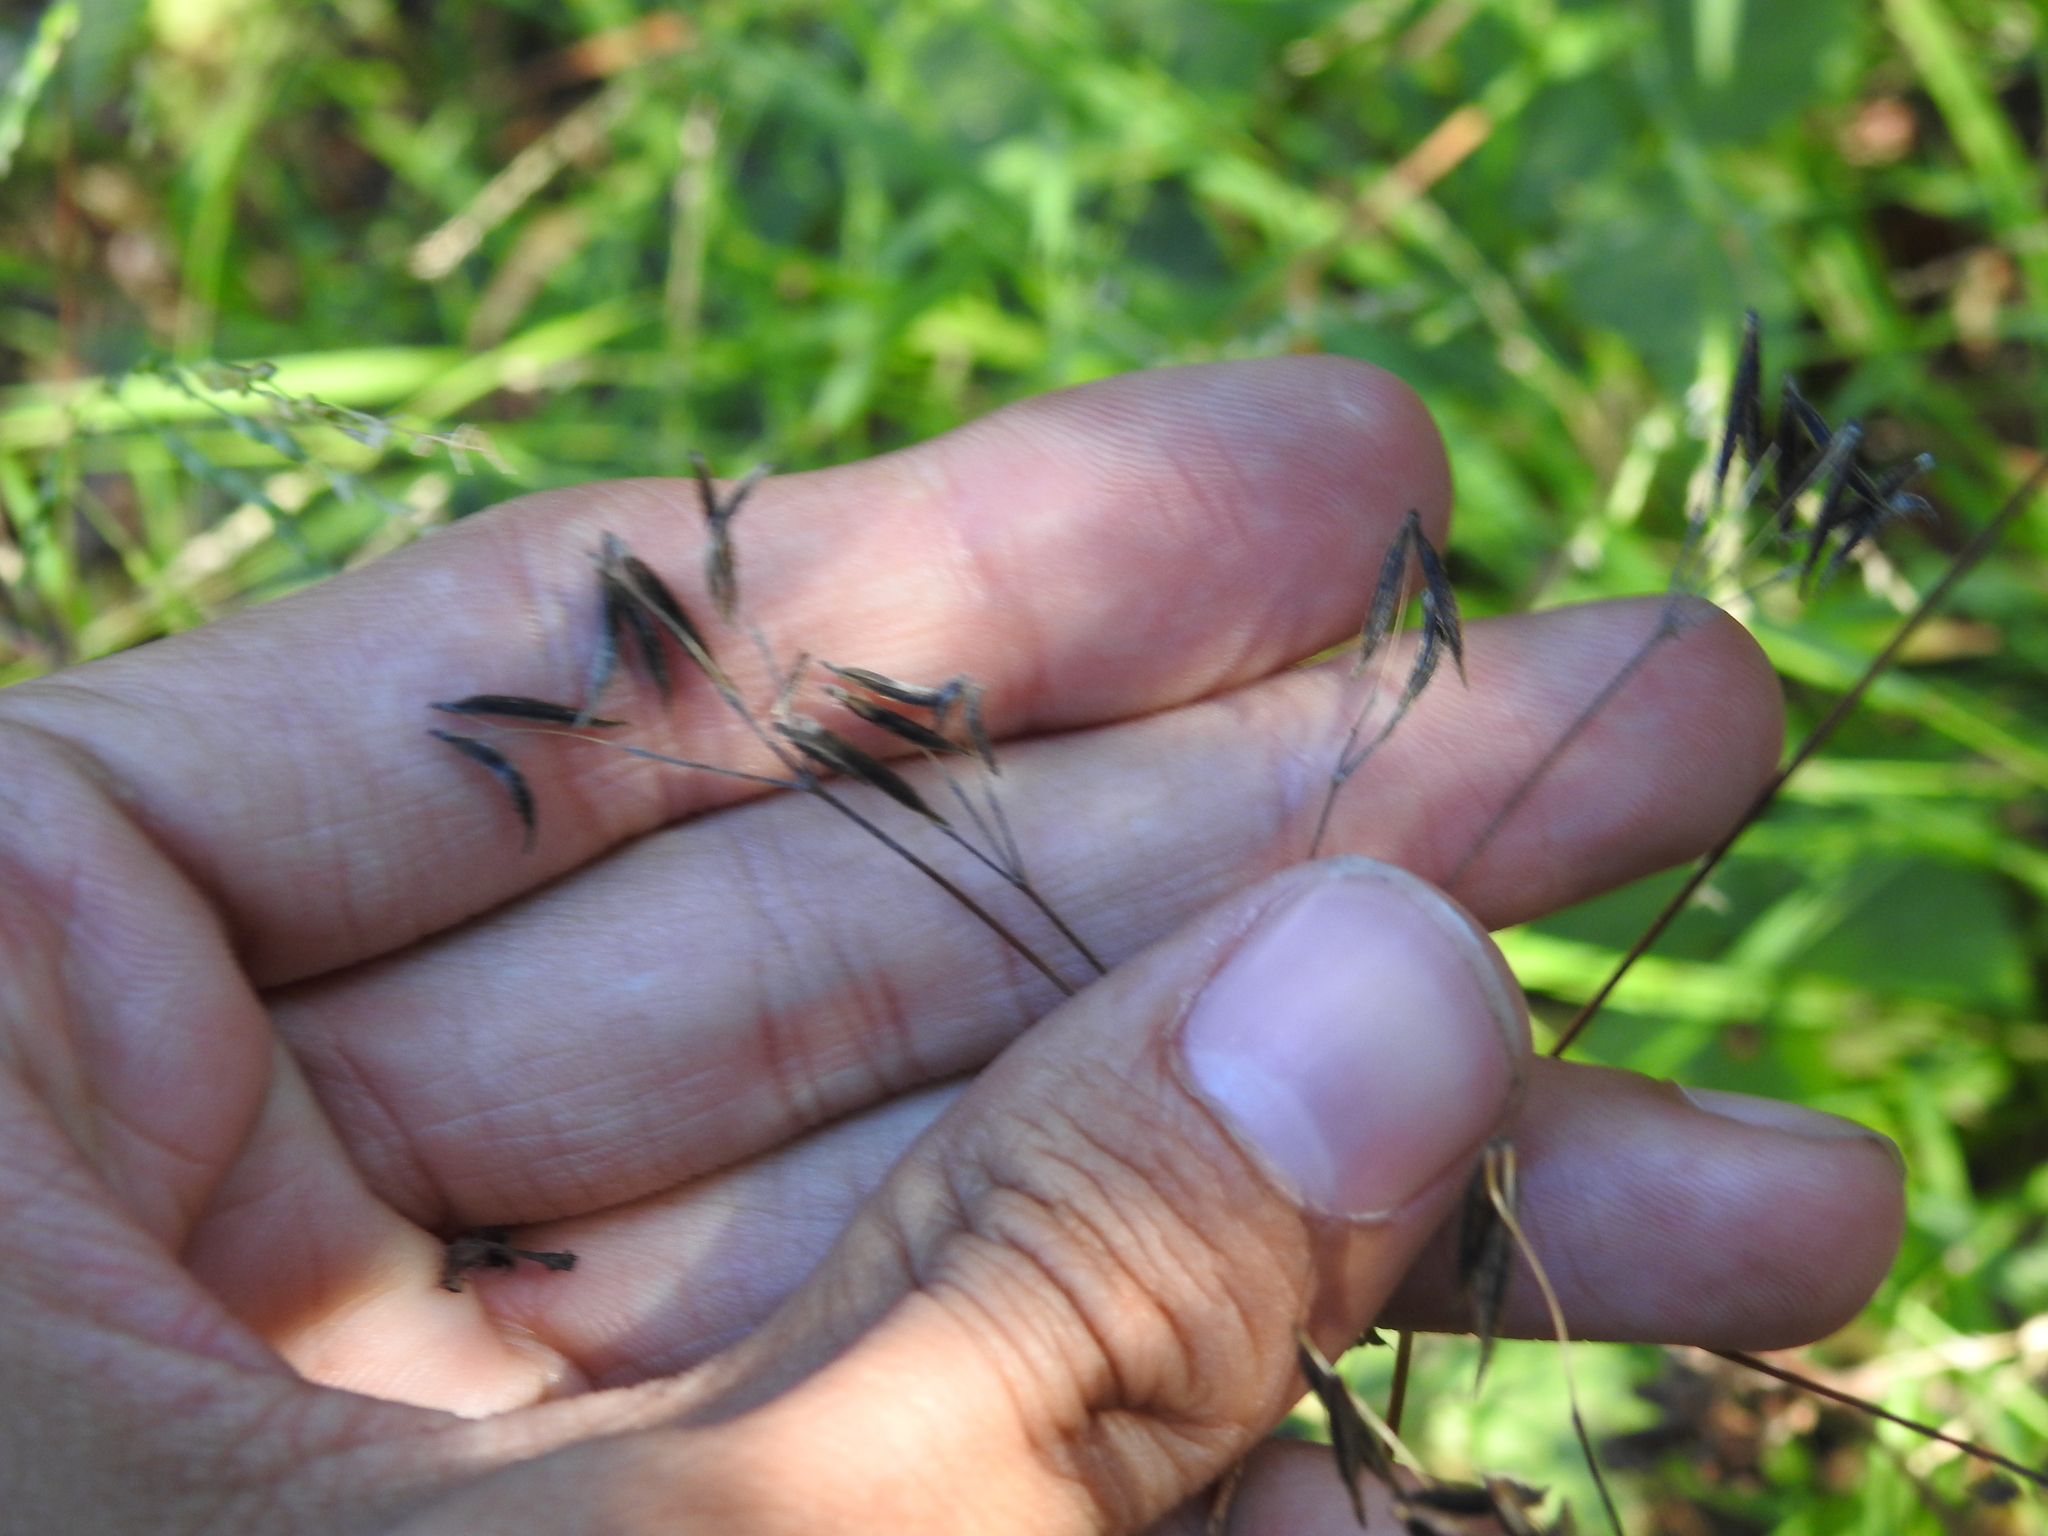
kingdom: Plantae
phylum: Tracheophyta
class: Magnoliopsida
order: Apiales
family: Apiaceae
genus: Osmorhiza
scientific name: Osmorhiza berteroi
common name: Mountain sweet cicely
